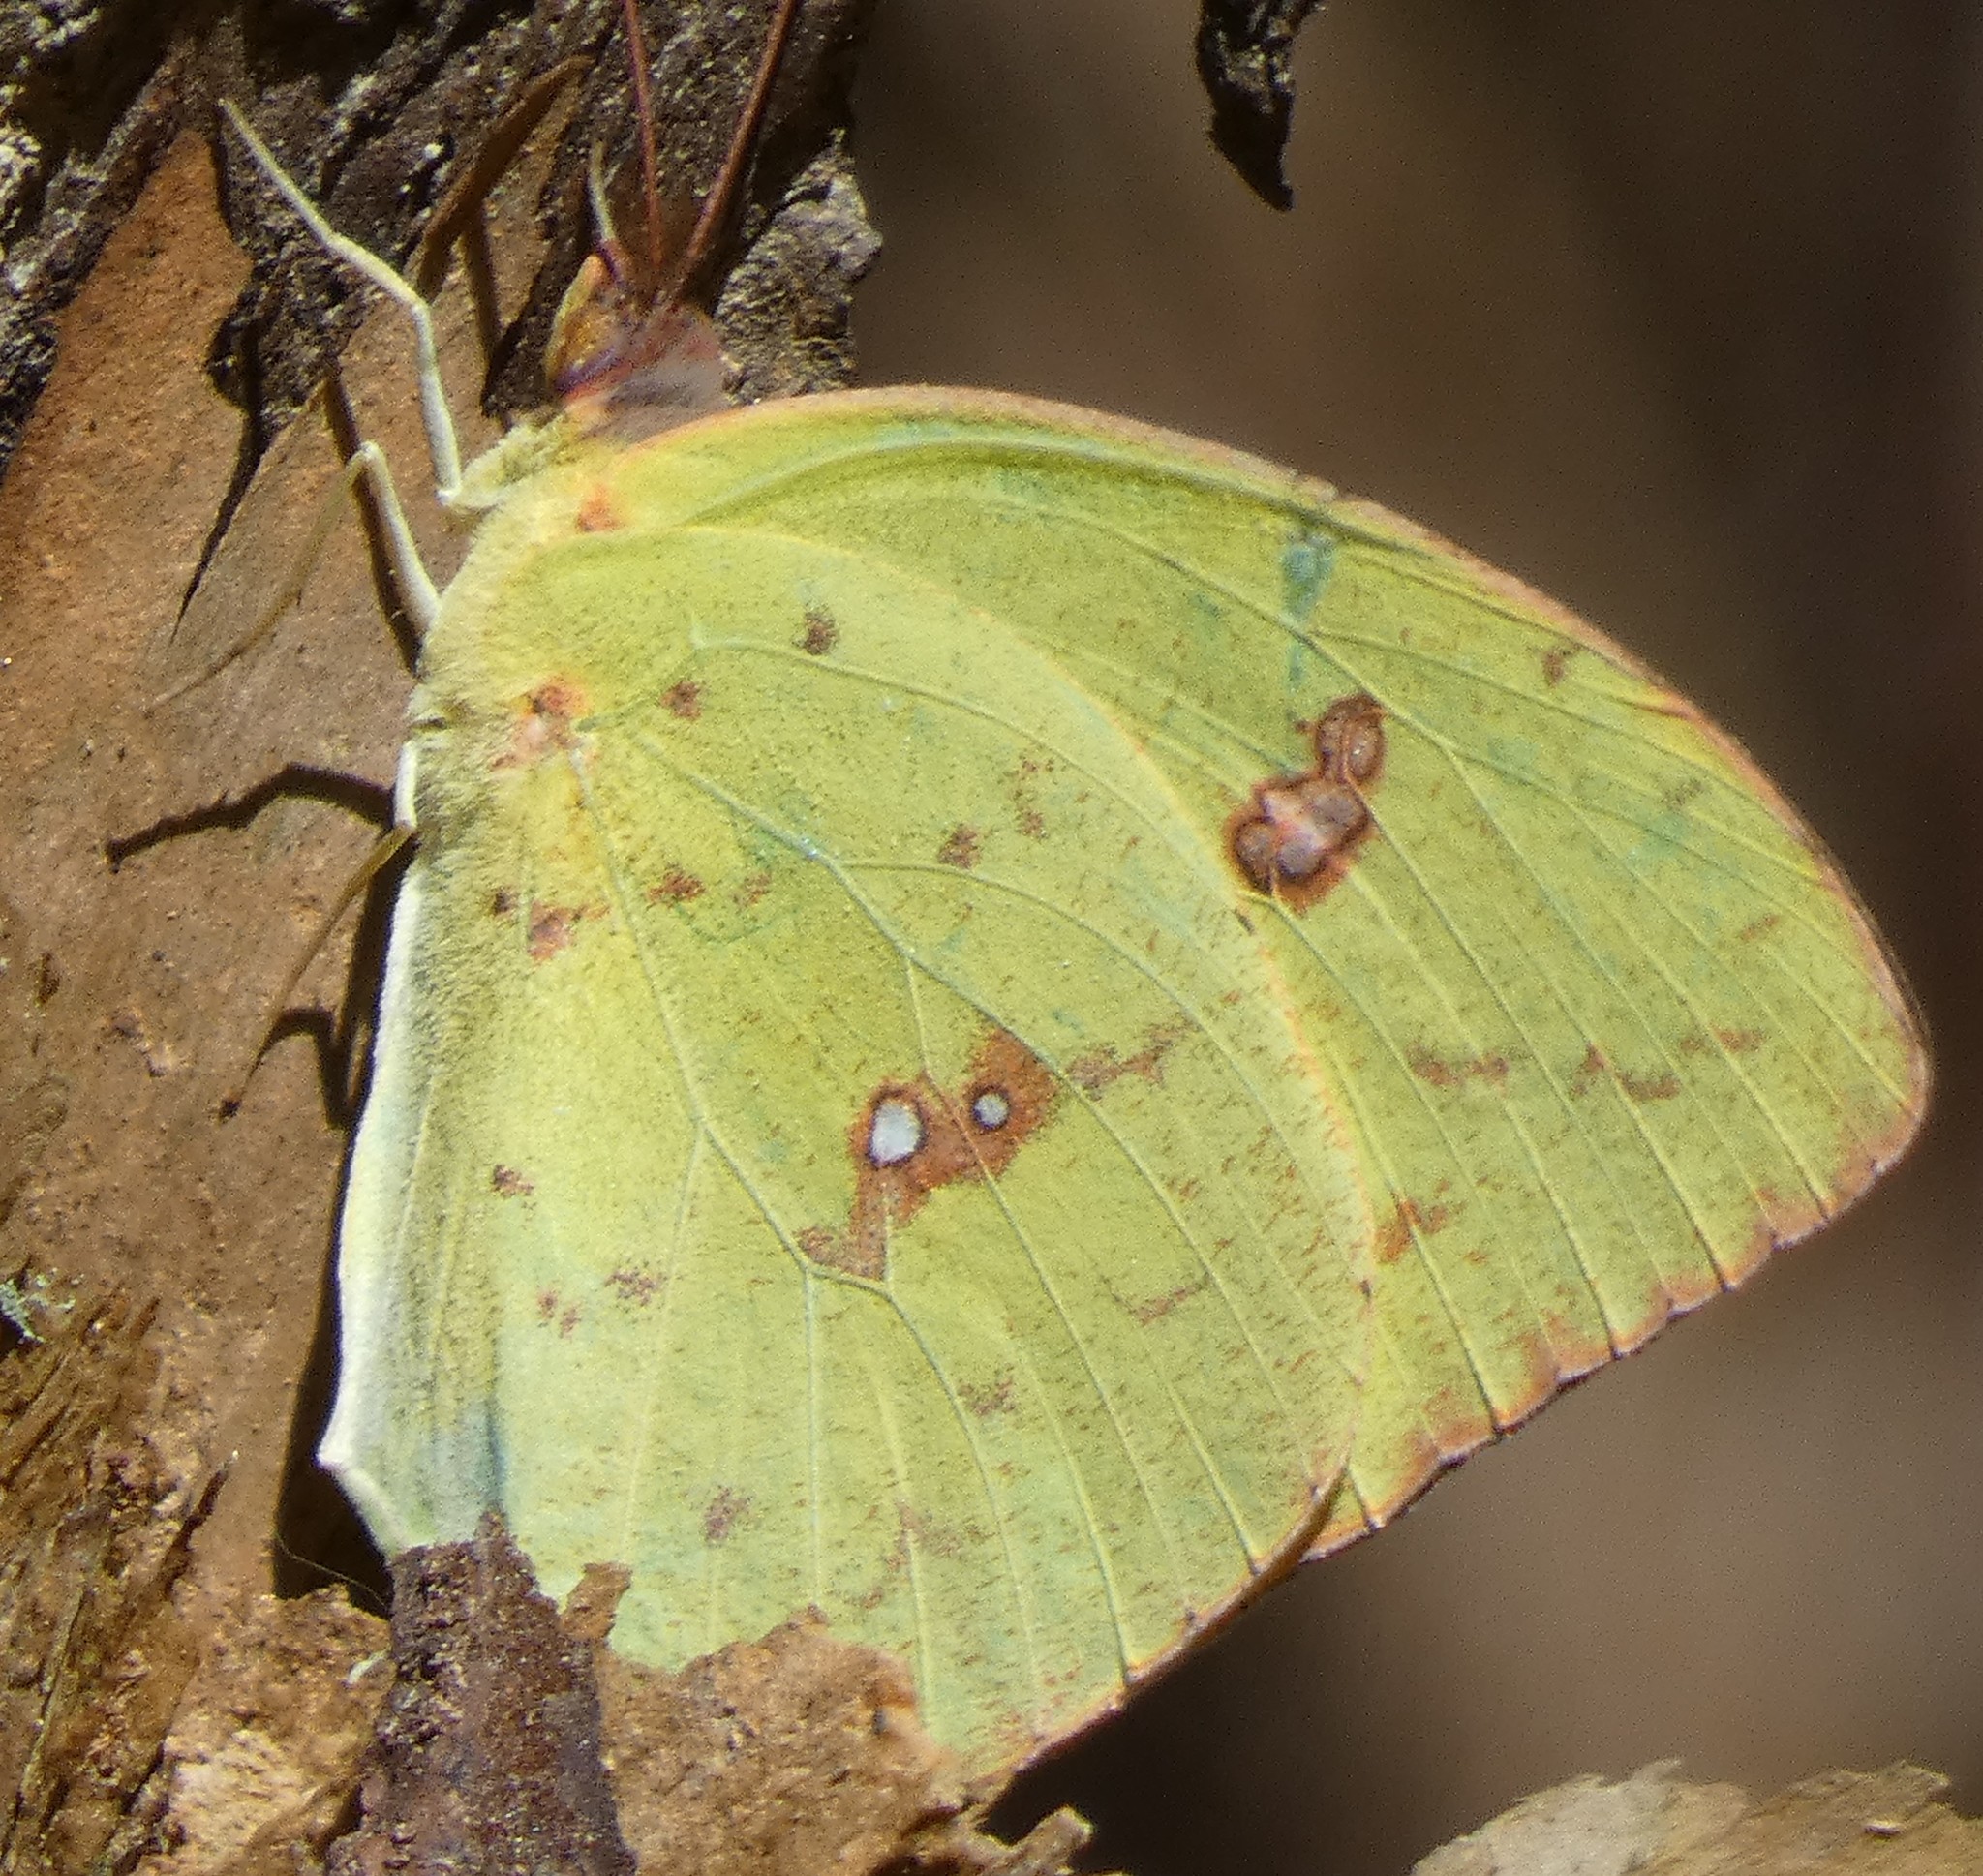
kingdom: Animalia
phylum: Arthropoda
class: Insecta
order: Lepidoptera
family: Pieridae
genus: Phoebis
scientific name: Phoebis sennae
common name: Cloudless sulphur
